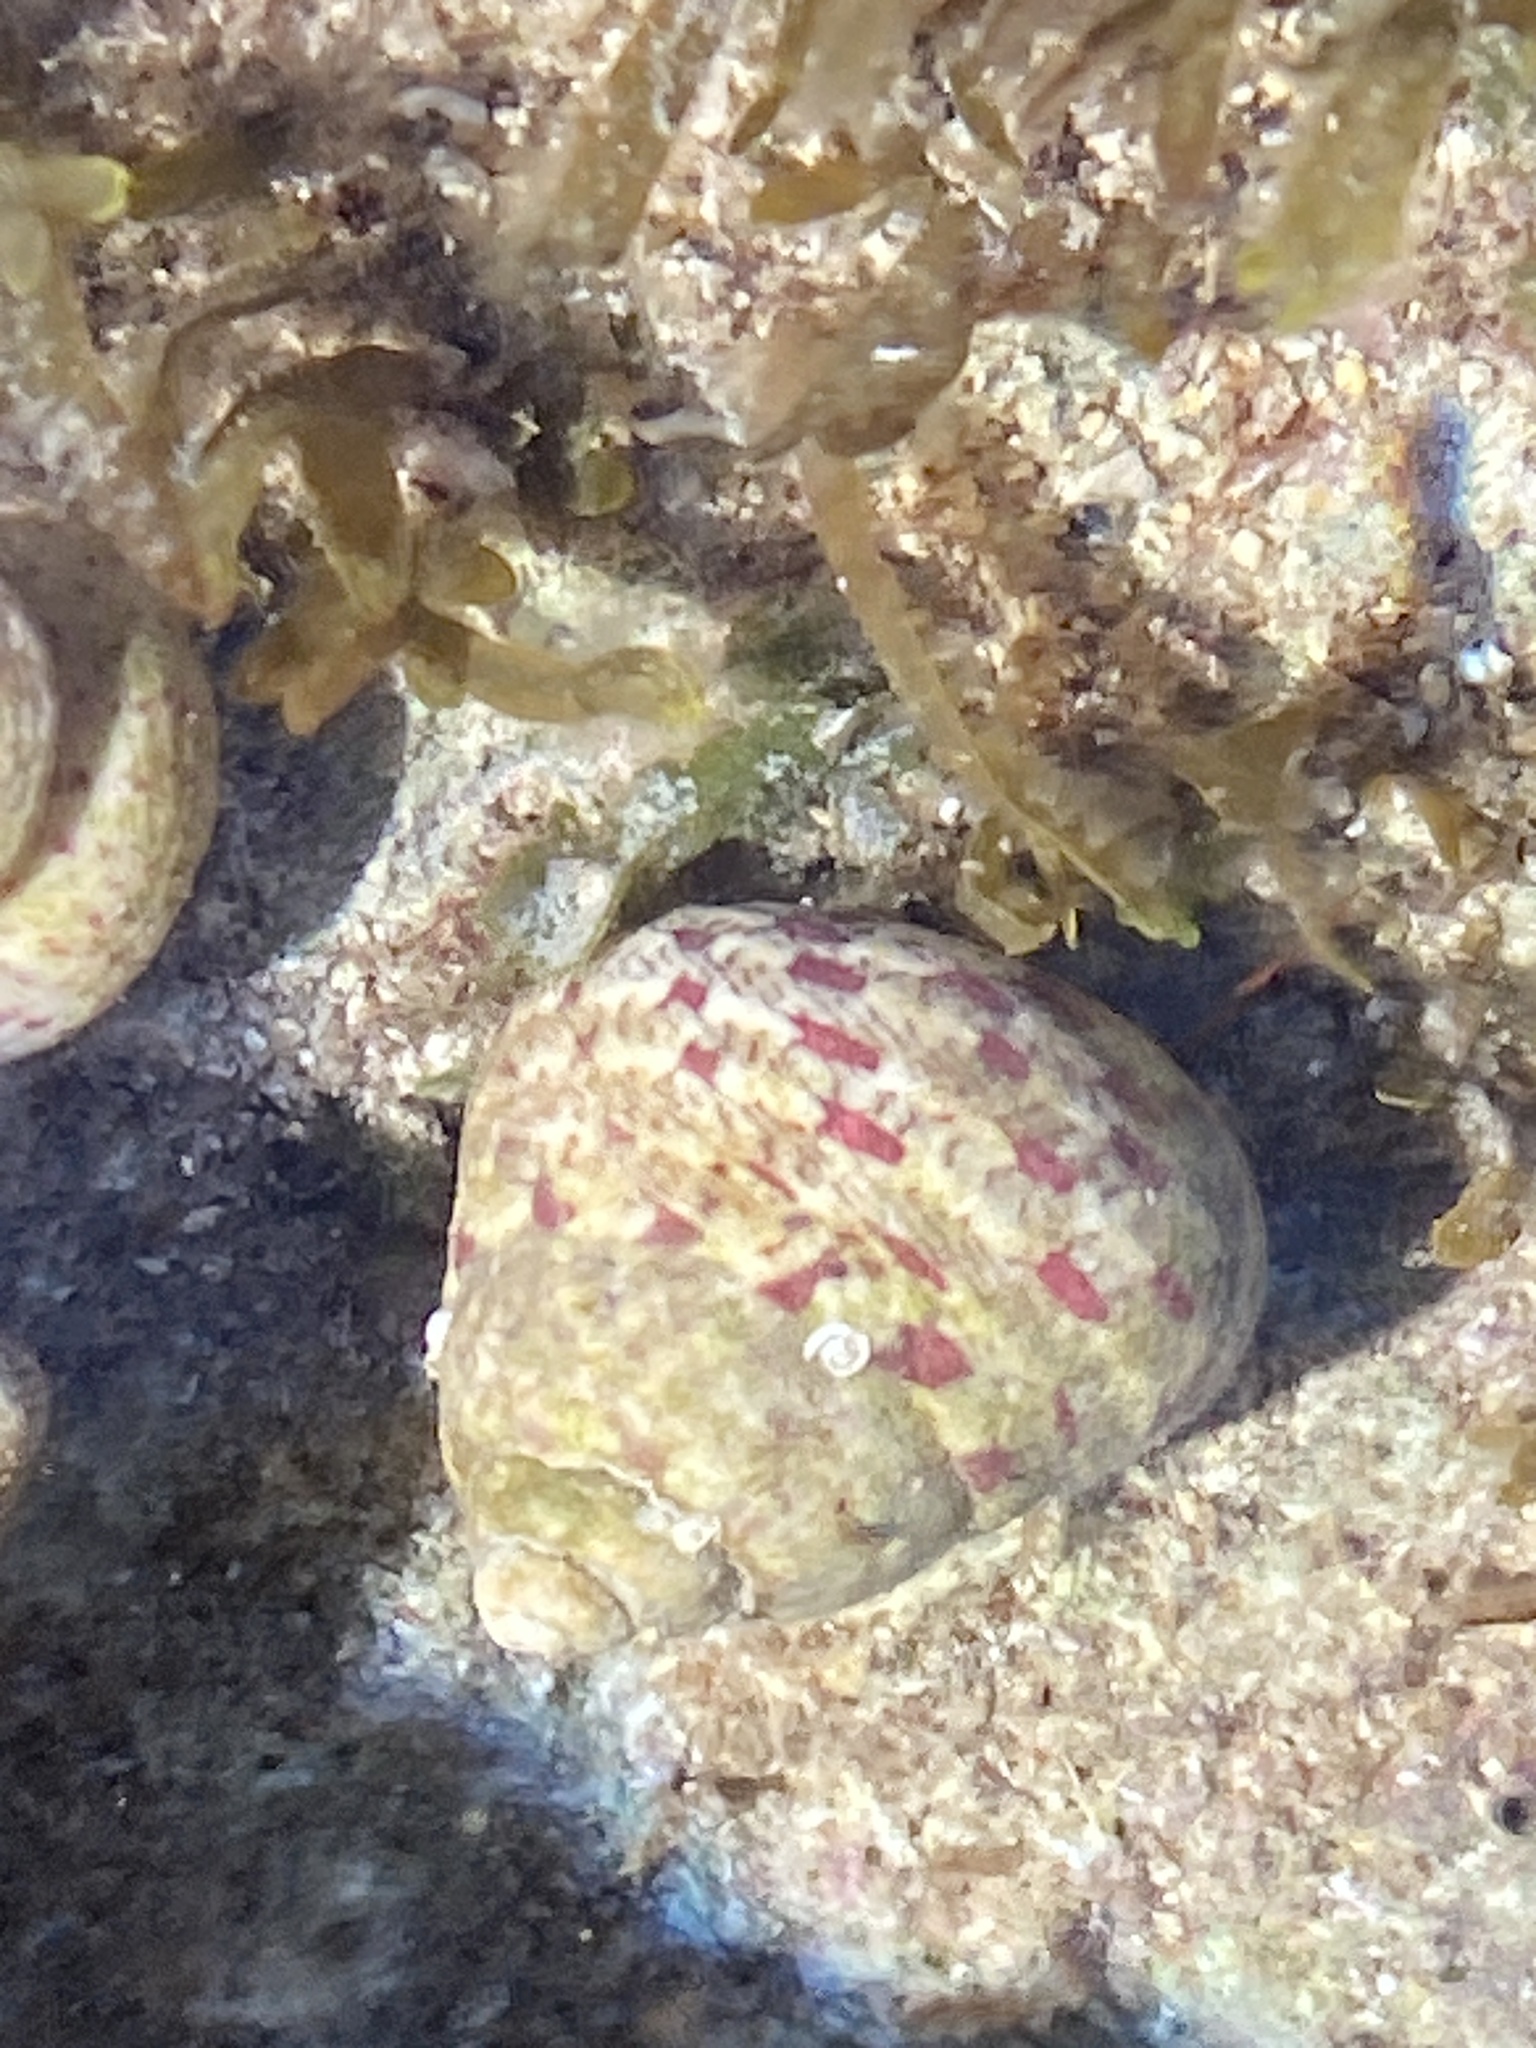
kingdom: Animalia
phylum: Mollusca
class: Gastropoda
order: Trochida
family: Trochidae
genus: Phorcus
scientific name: Phorcus articulatus
